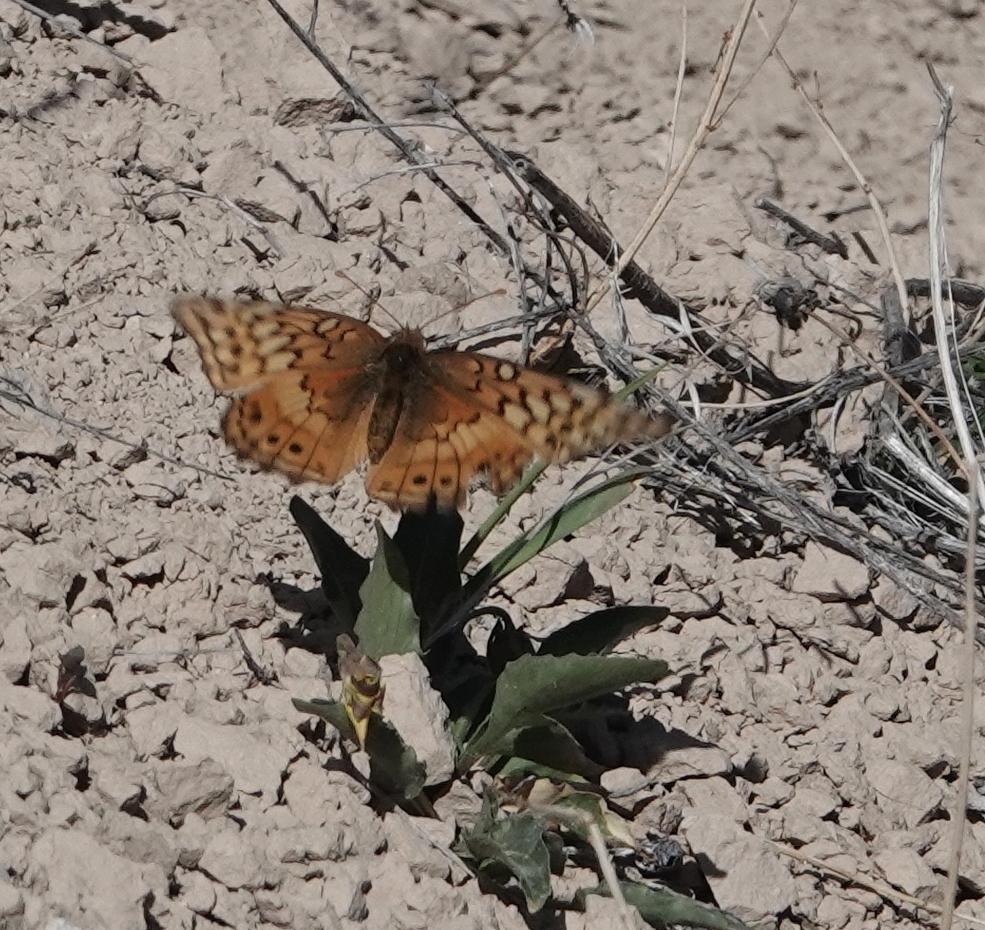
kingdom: Animalia
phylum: Arthropoda
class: Insecta
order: Lepidoptera
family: Nymphalidae
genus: Euptoieta
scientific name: Euptoieta claudia
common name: Variegated fritillary
